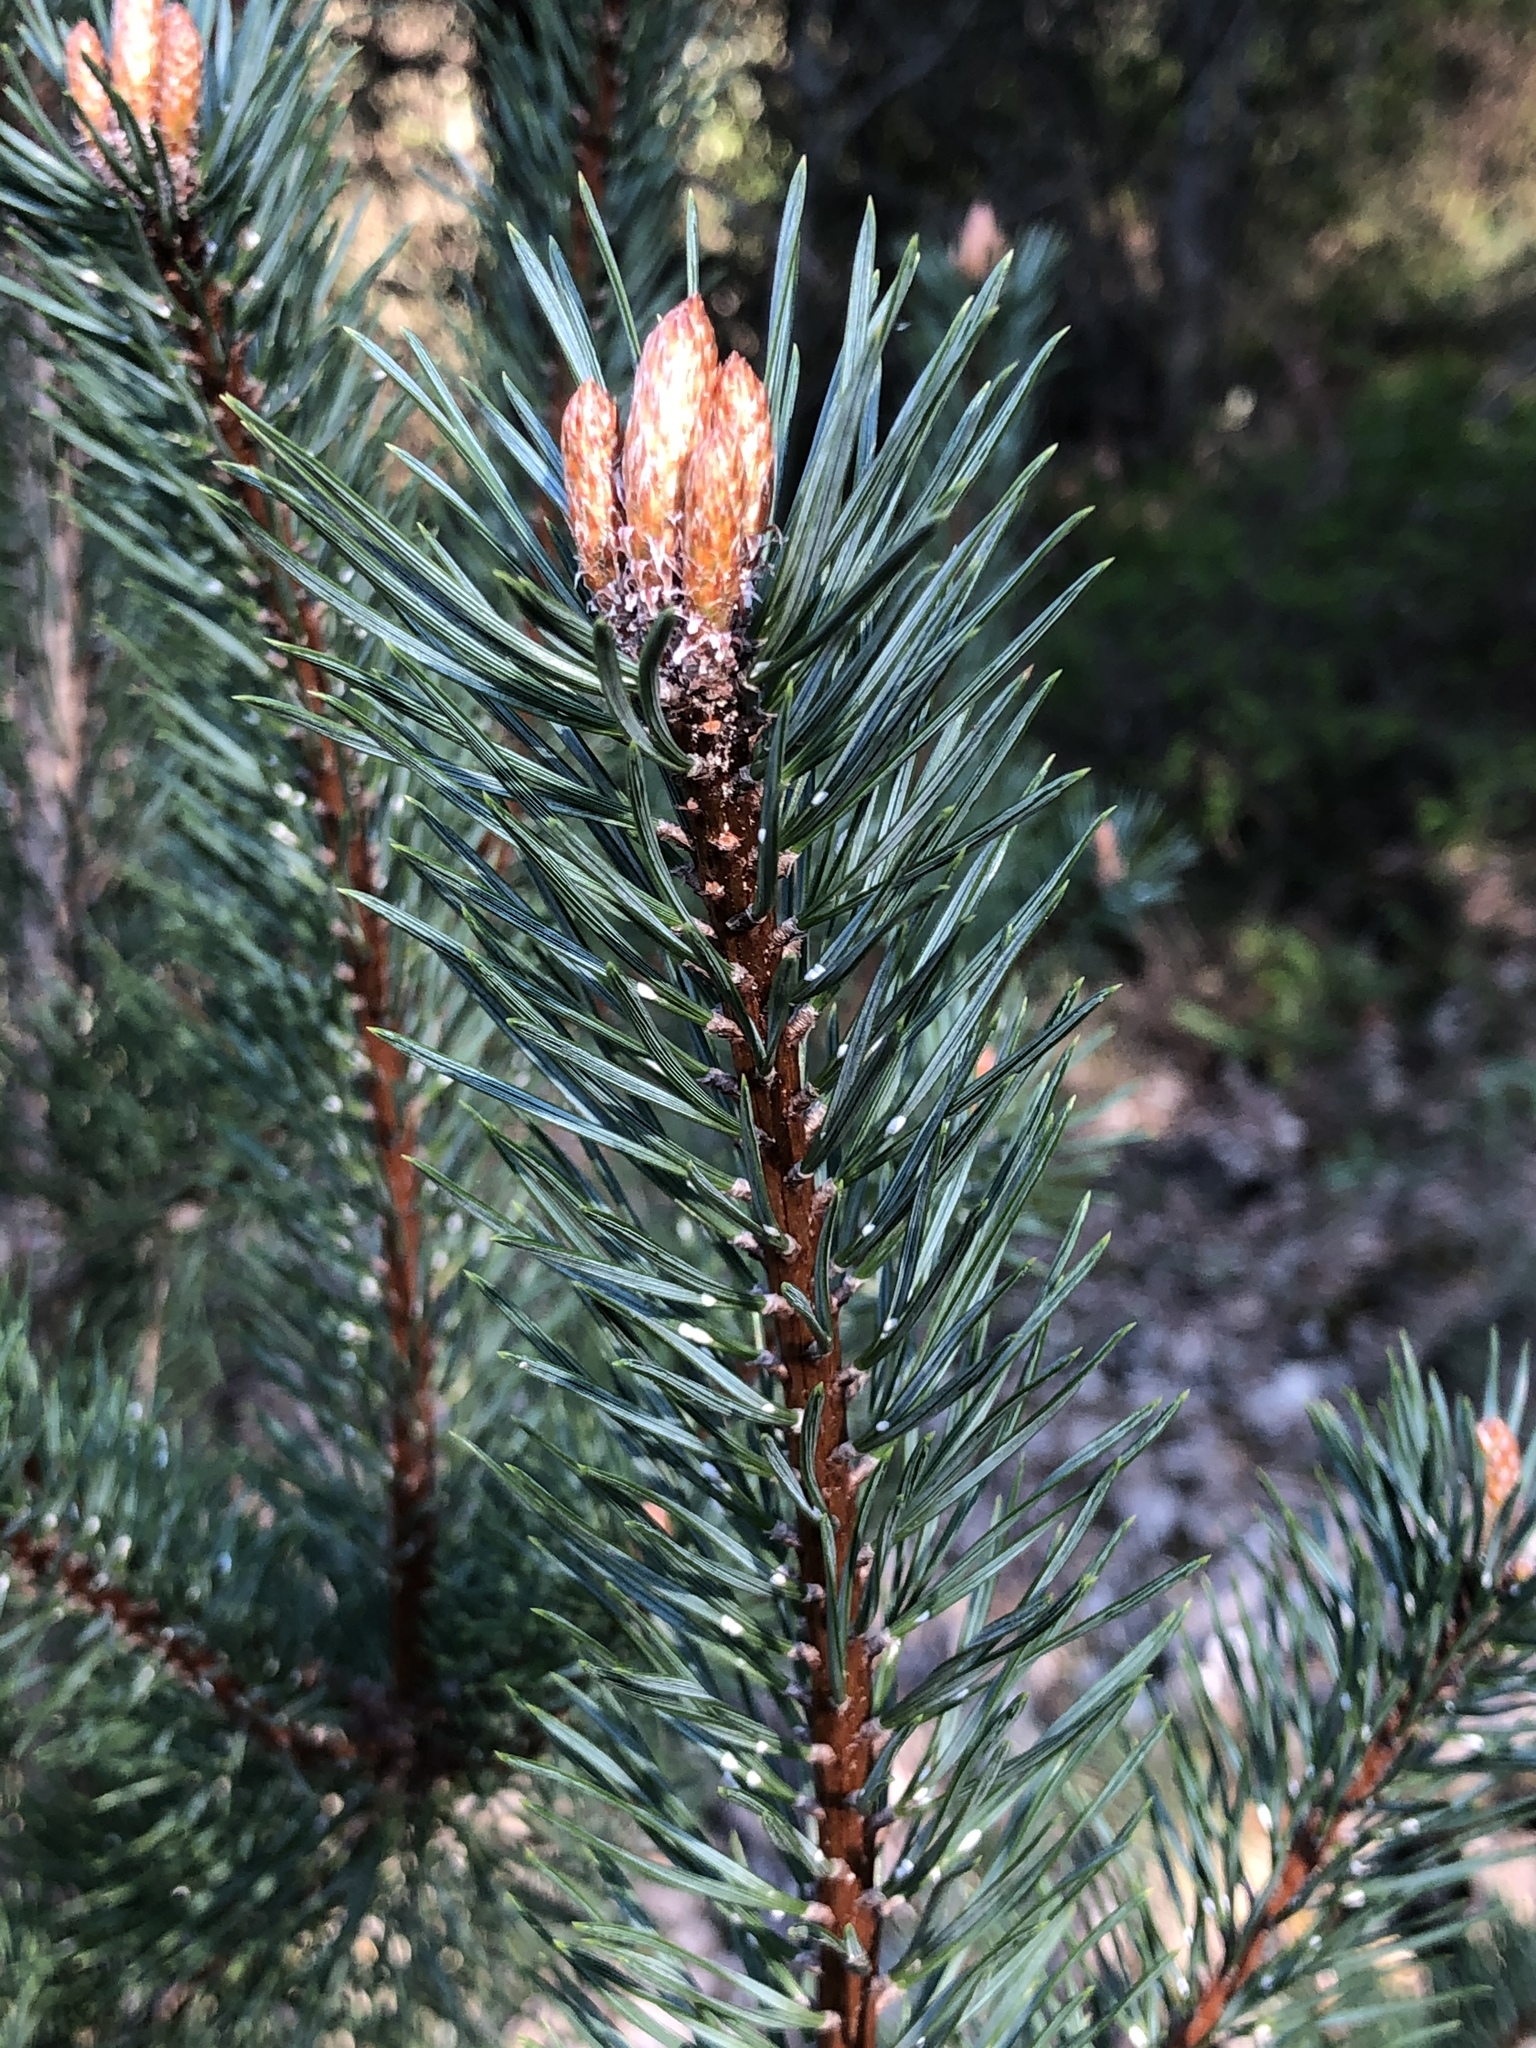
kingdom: Plantae
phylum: Tracheophyta
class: Pinopsida
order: Pinales
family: Pinaceae
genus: Pinus
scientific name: Pinus sylvestris
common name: Scots pine
